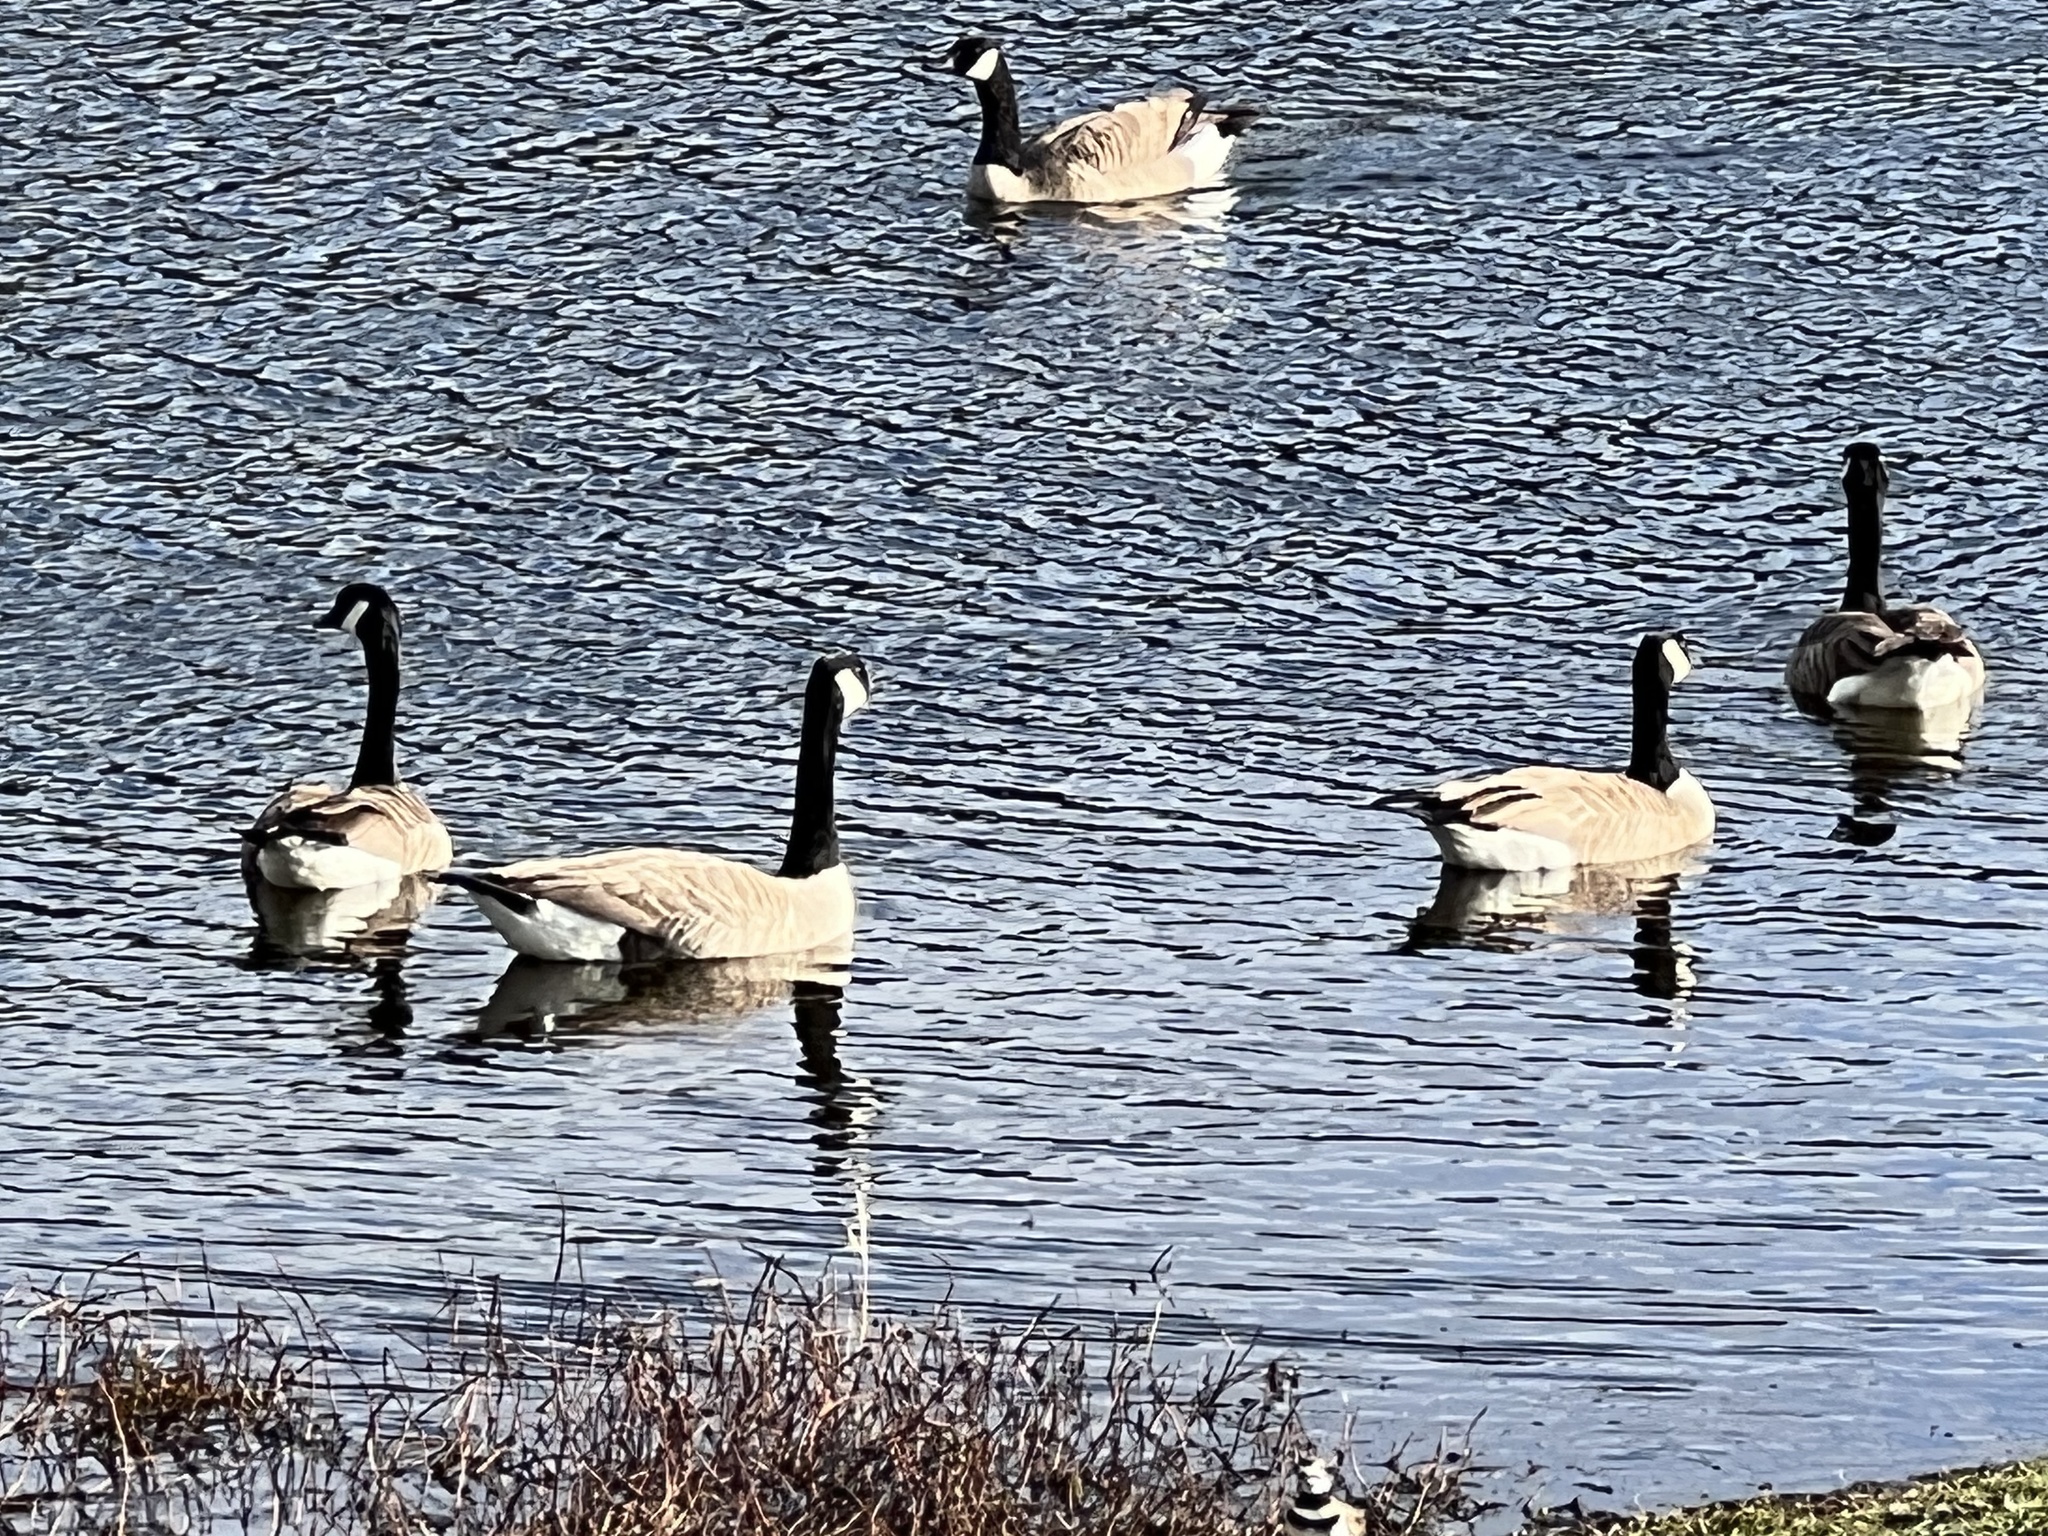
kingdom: Animalia
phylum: Chordata
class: Aves
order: Anseriformes
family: Anatidae
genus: Branta
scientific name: Branta canadensis
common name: Canada goose
